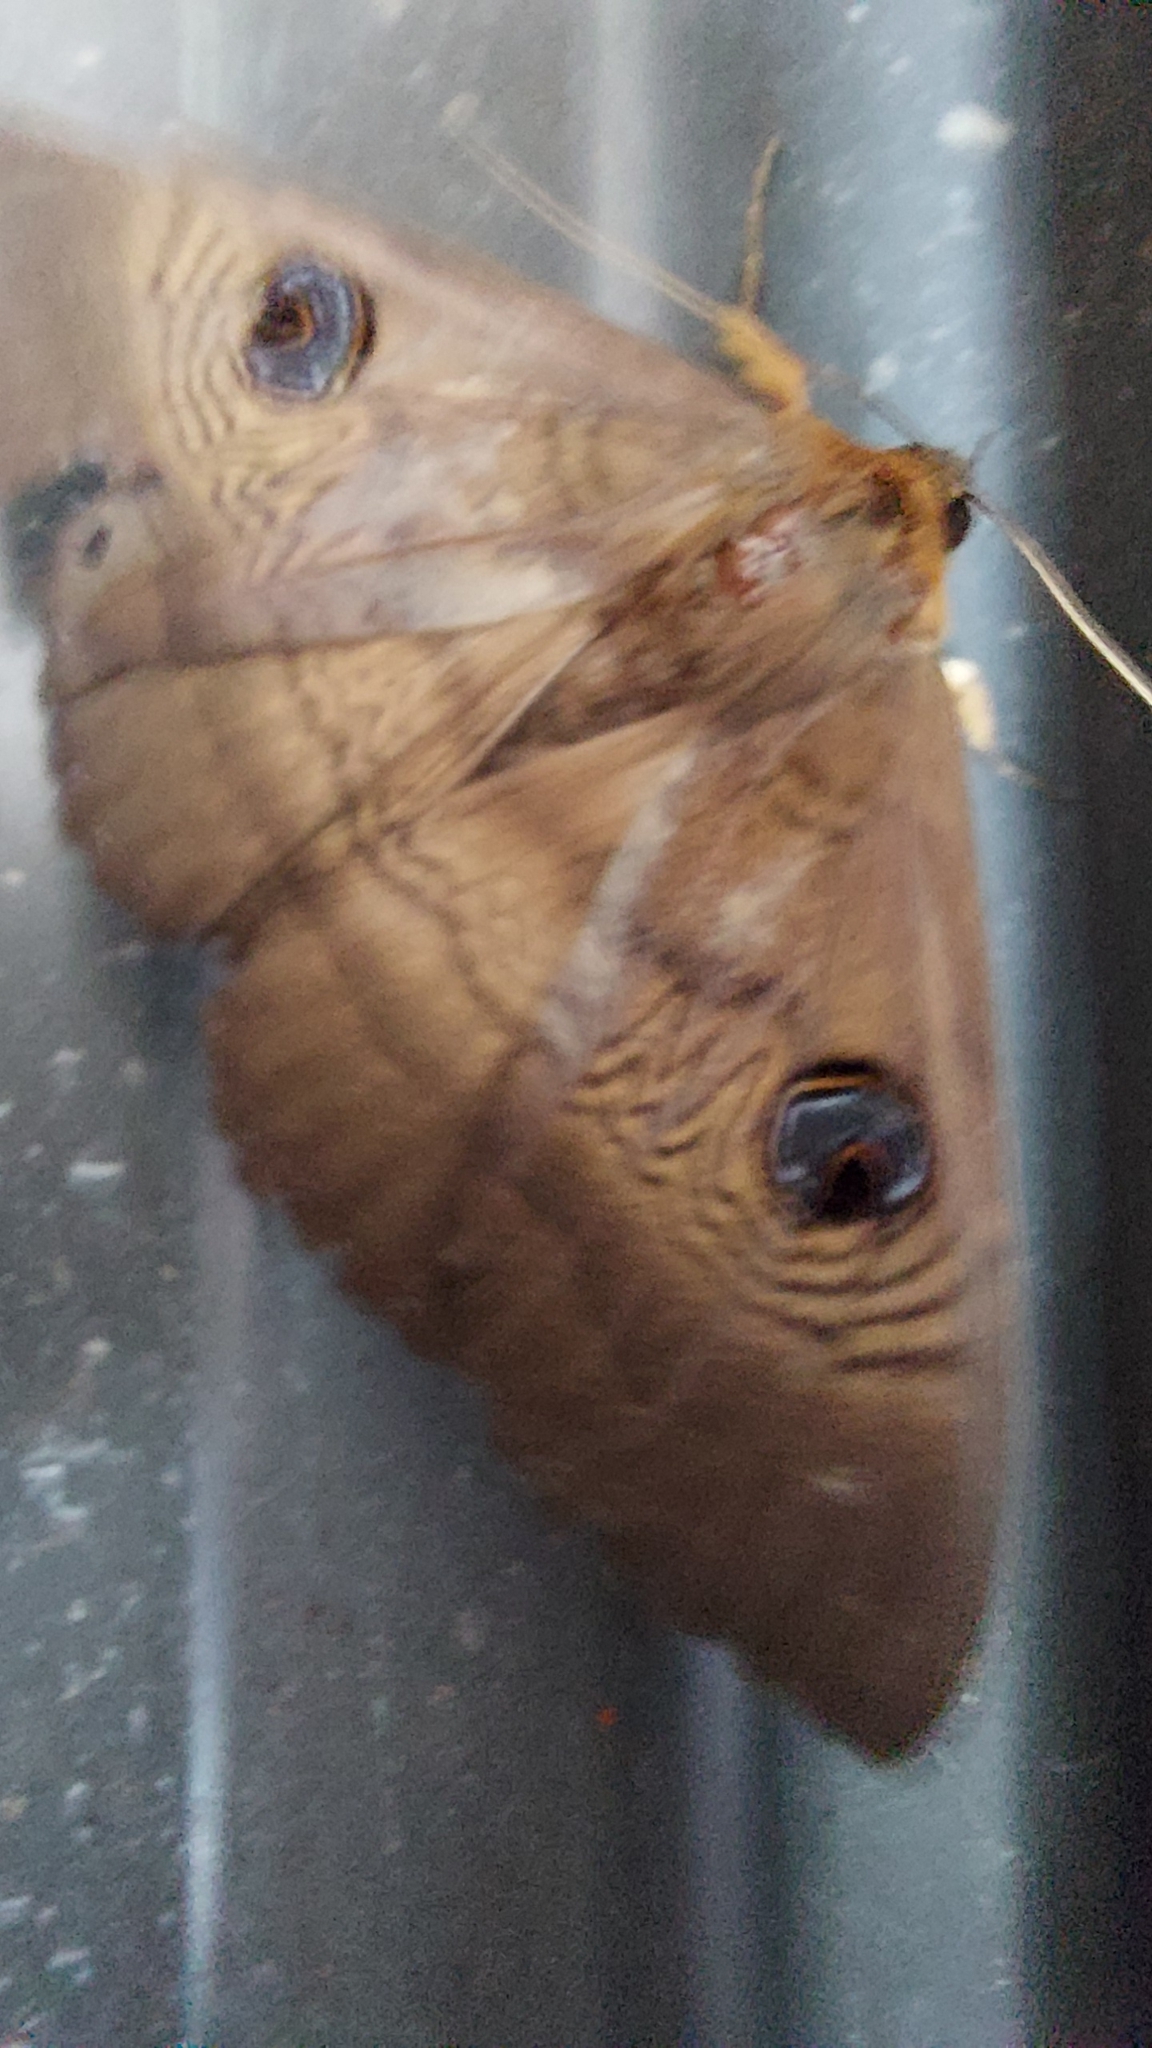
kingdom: Animalia
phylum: Arthropoda
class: Insecta
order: Lepidoptera
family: Erebidae
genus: Dasypodia
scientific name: Dasypodia selenophora
